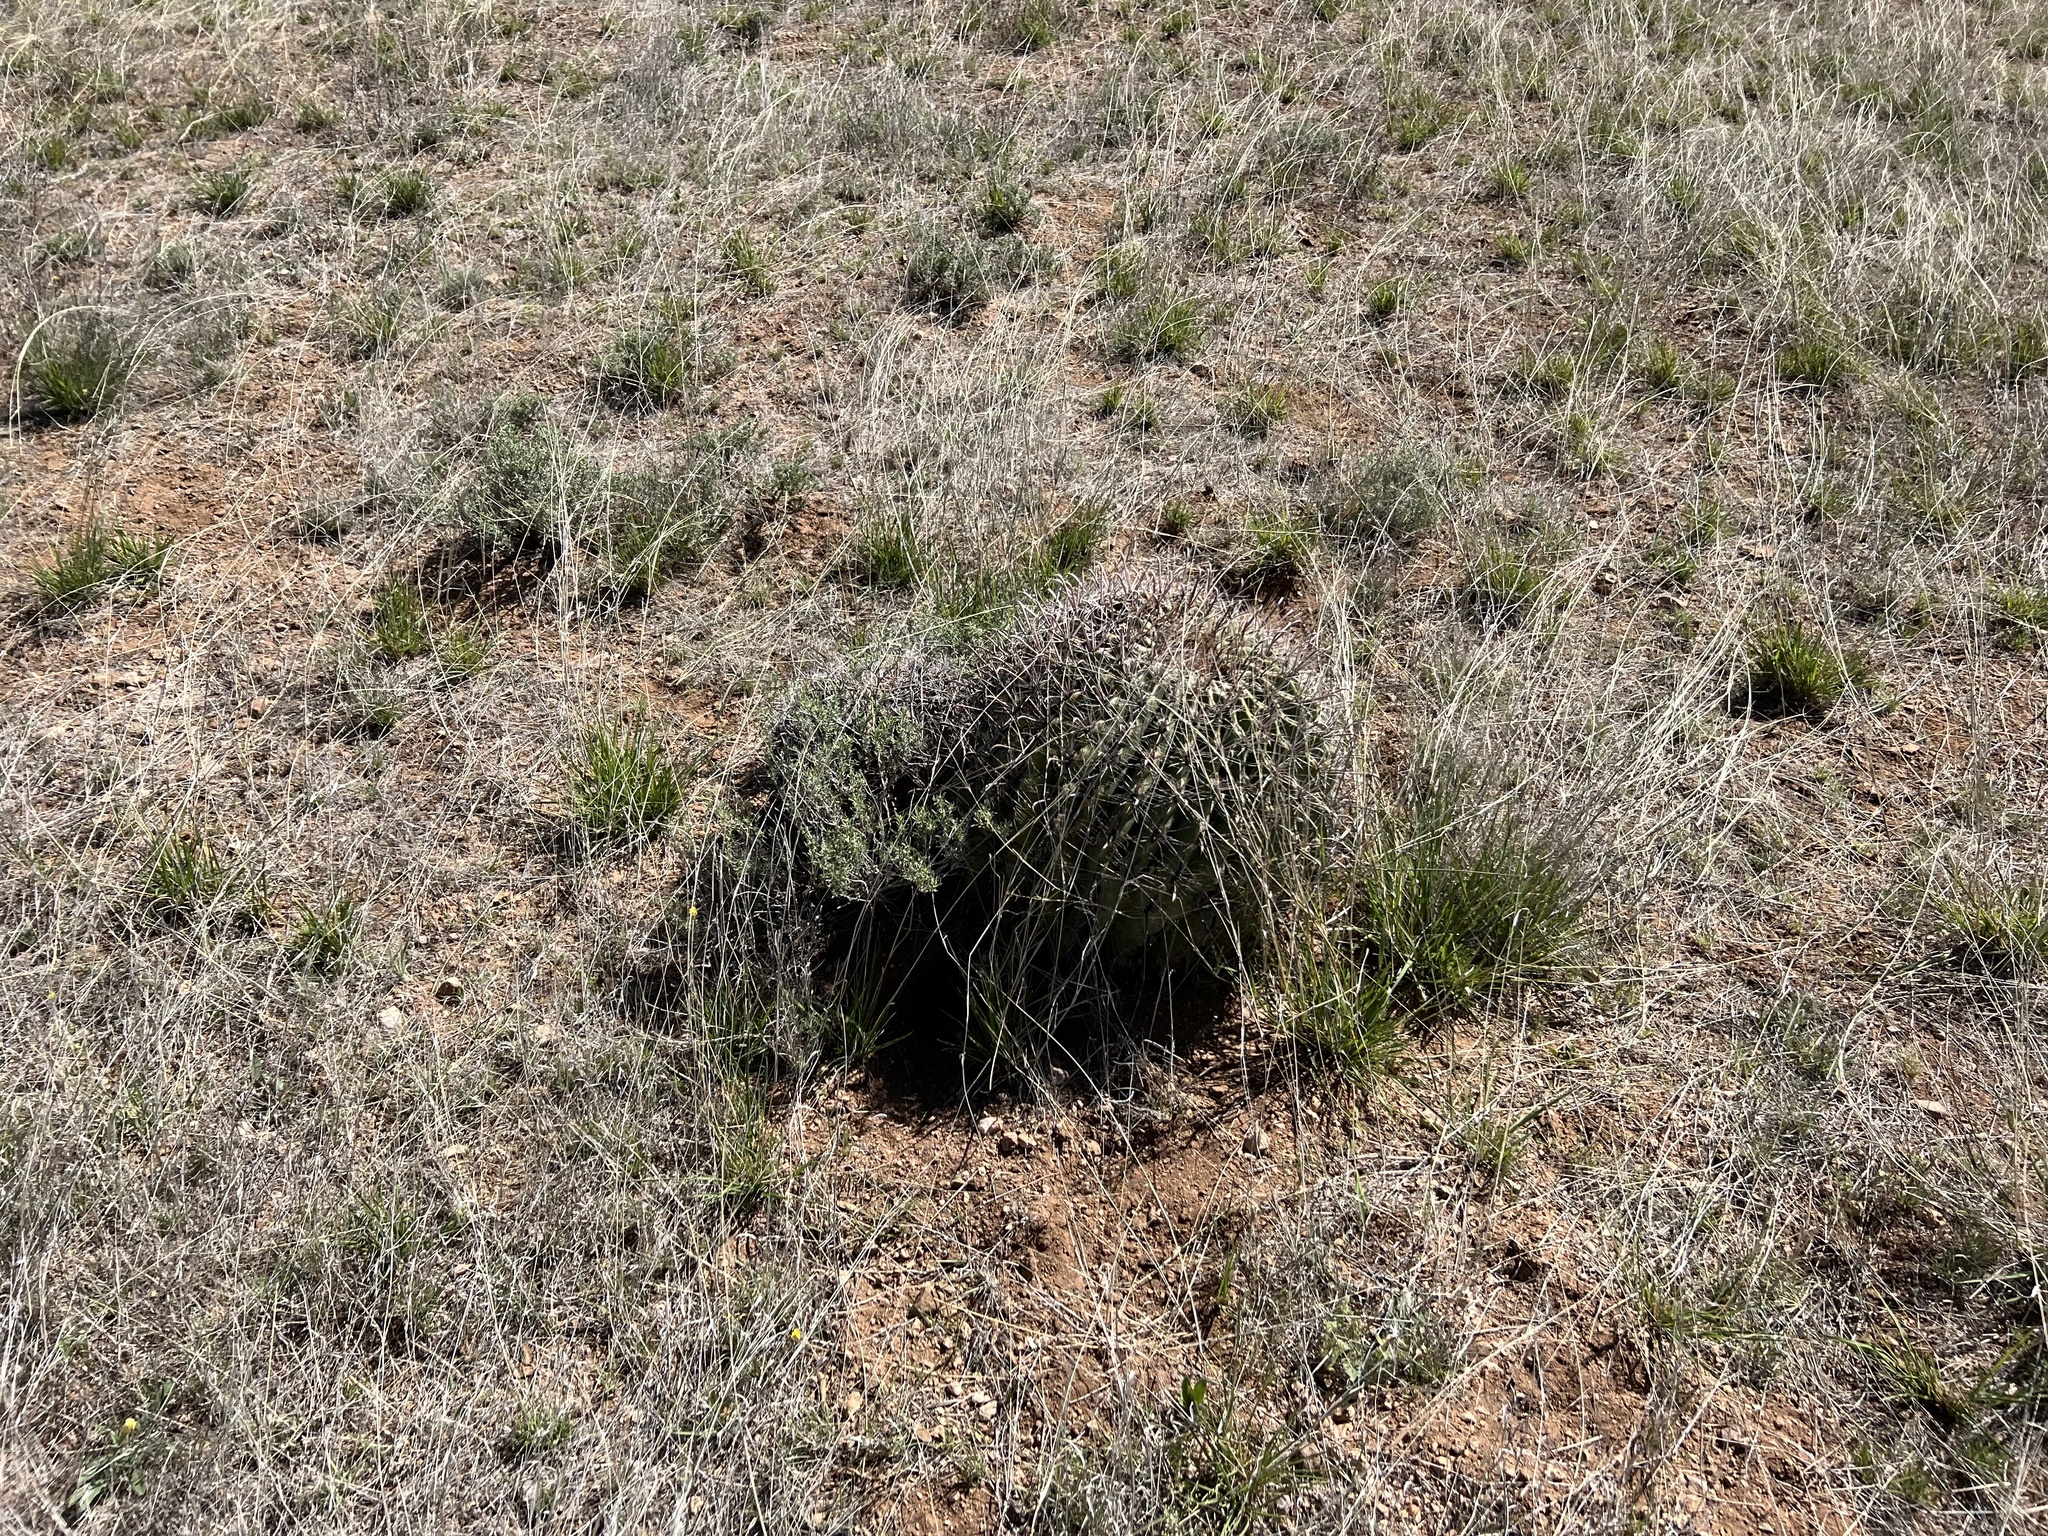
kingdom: Plantae
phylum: Tracheophyta
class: Magnoliopsida
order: Caryophyllales
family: Cactaceae
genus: Ferocactus
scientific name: Ferocactus wislizeni
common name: Candy barrel cactus
